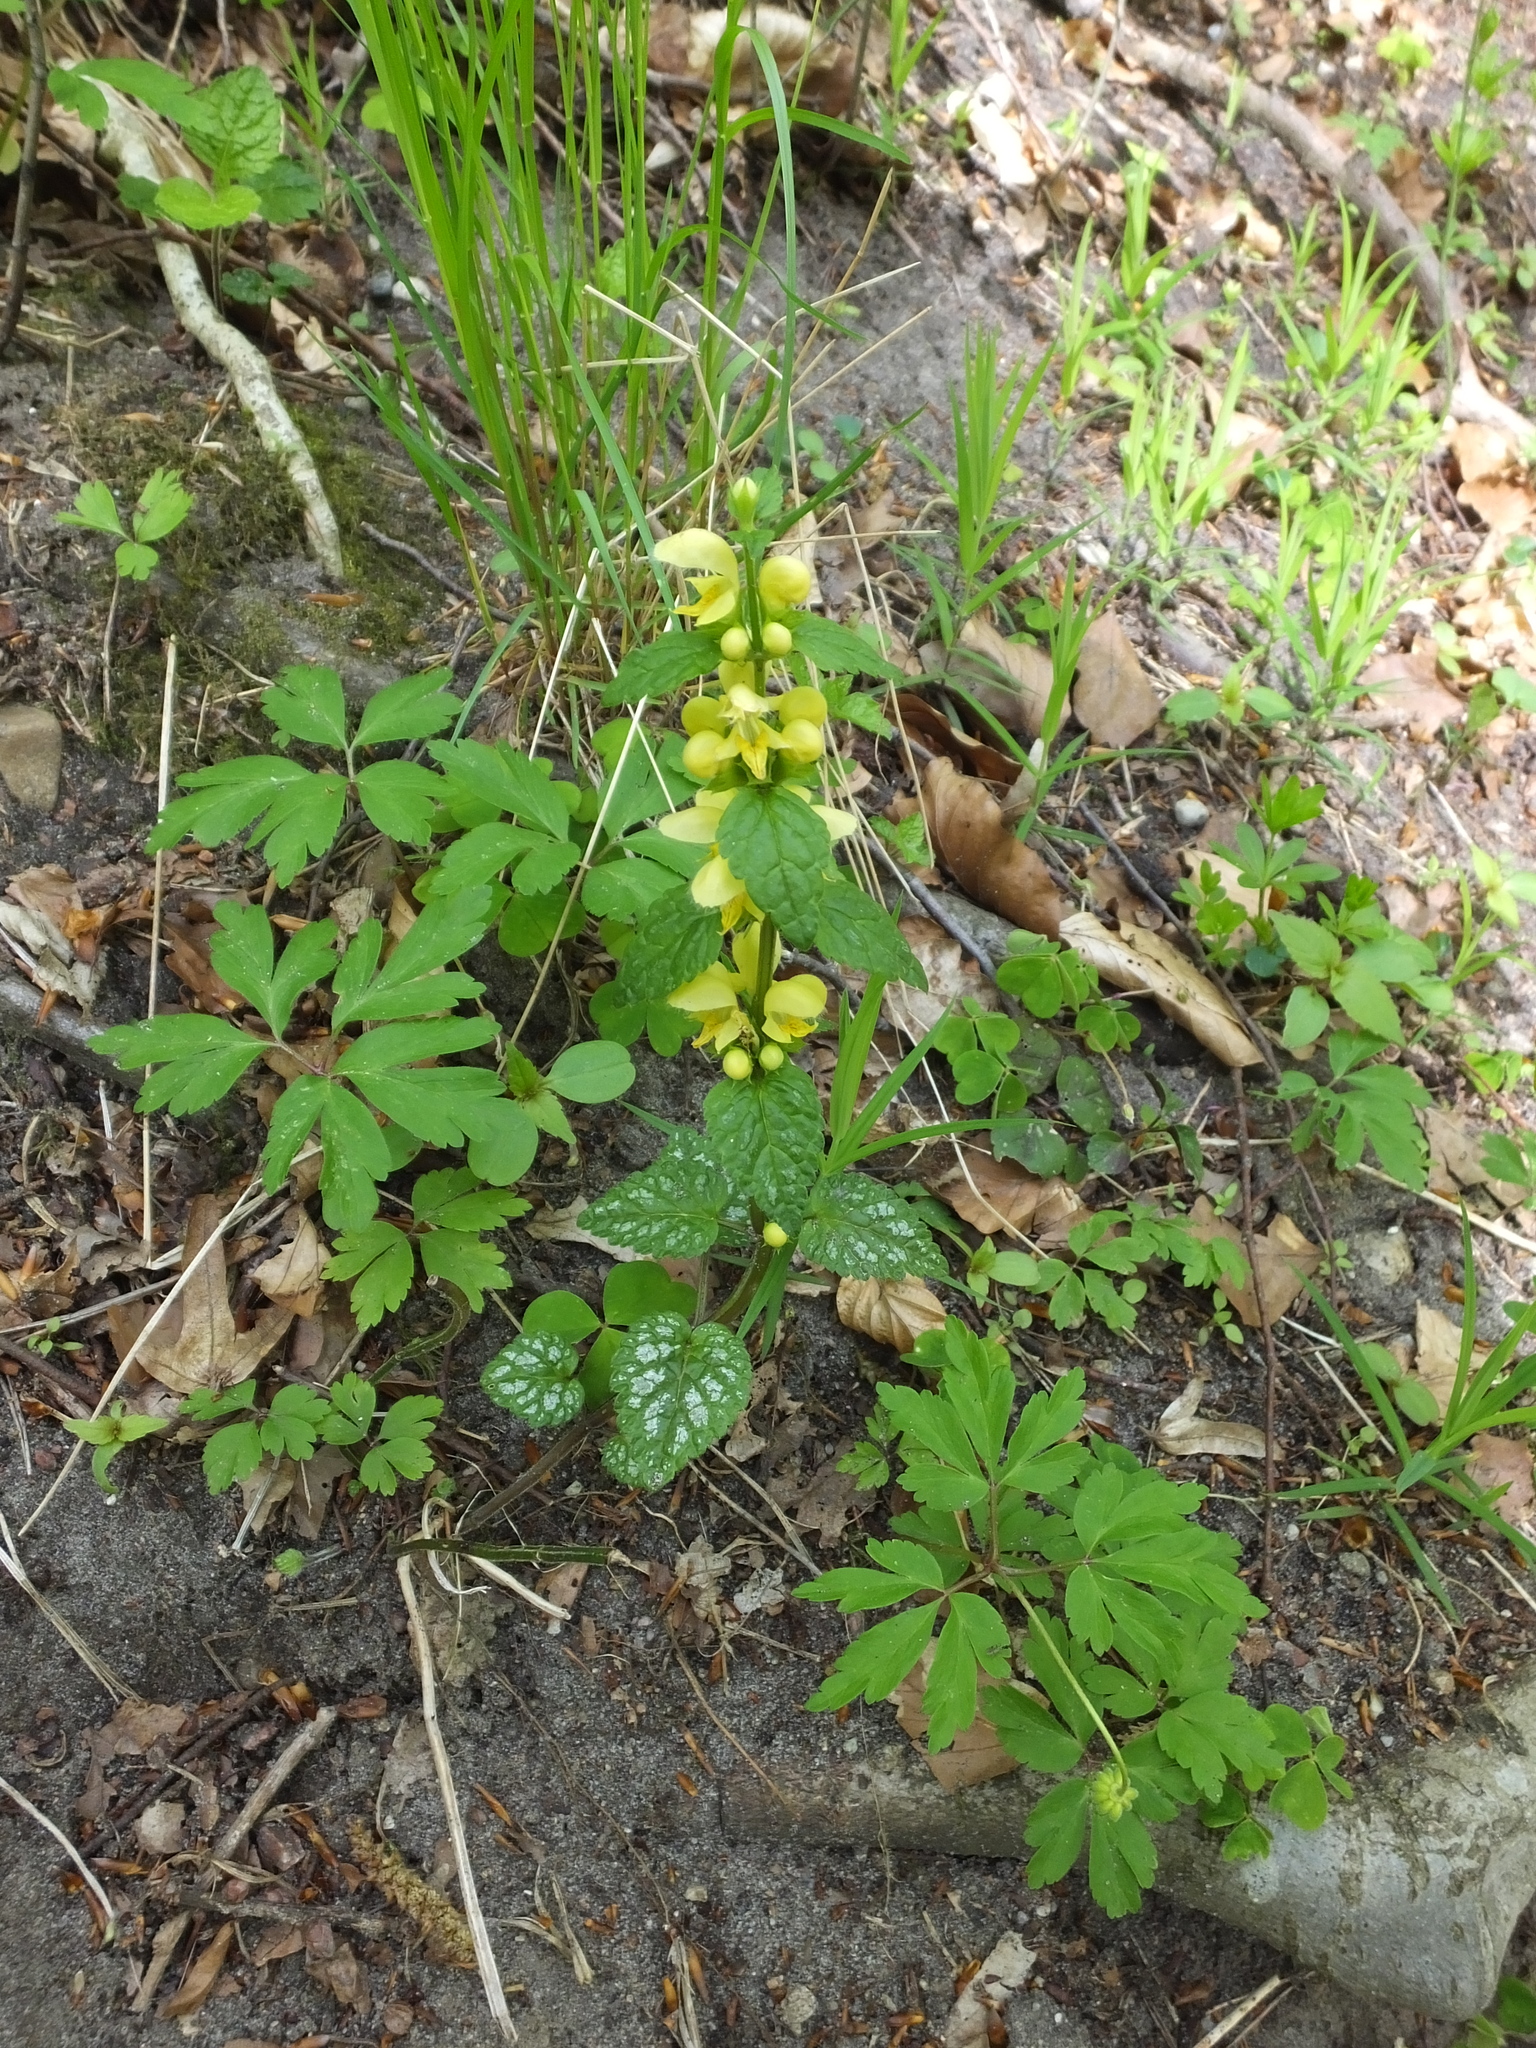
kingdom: Plantae
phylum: Tracheophyta
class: Magnoliopsida
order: Lamiales
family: Lamiaceae
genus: Lamium
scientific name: Lamium galeobdolon
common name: Yellow archangel
